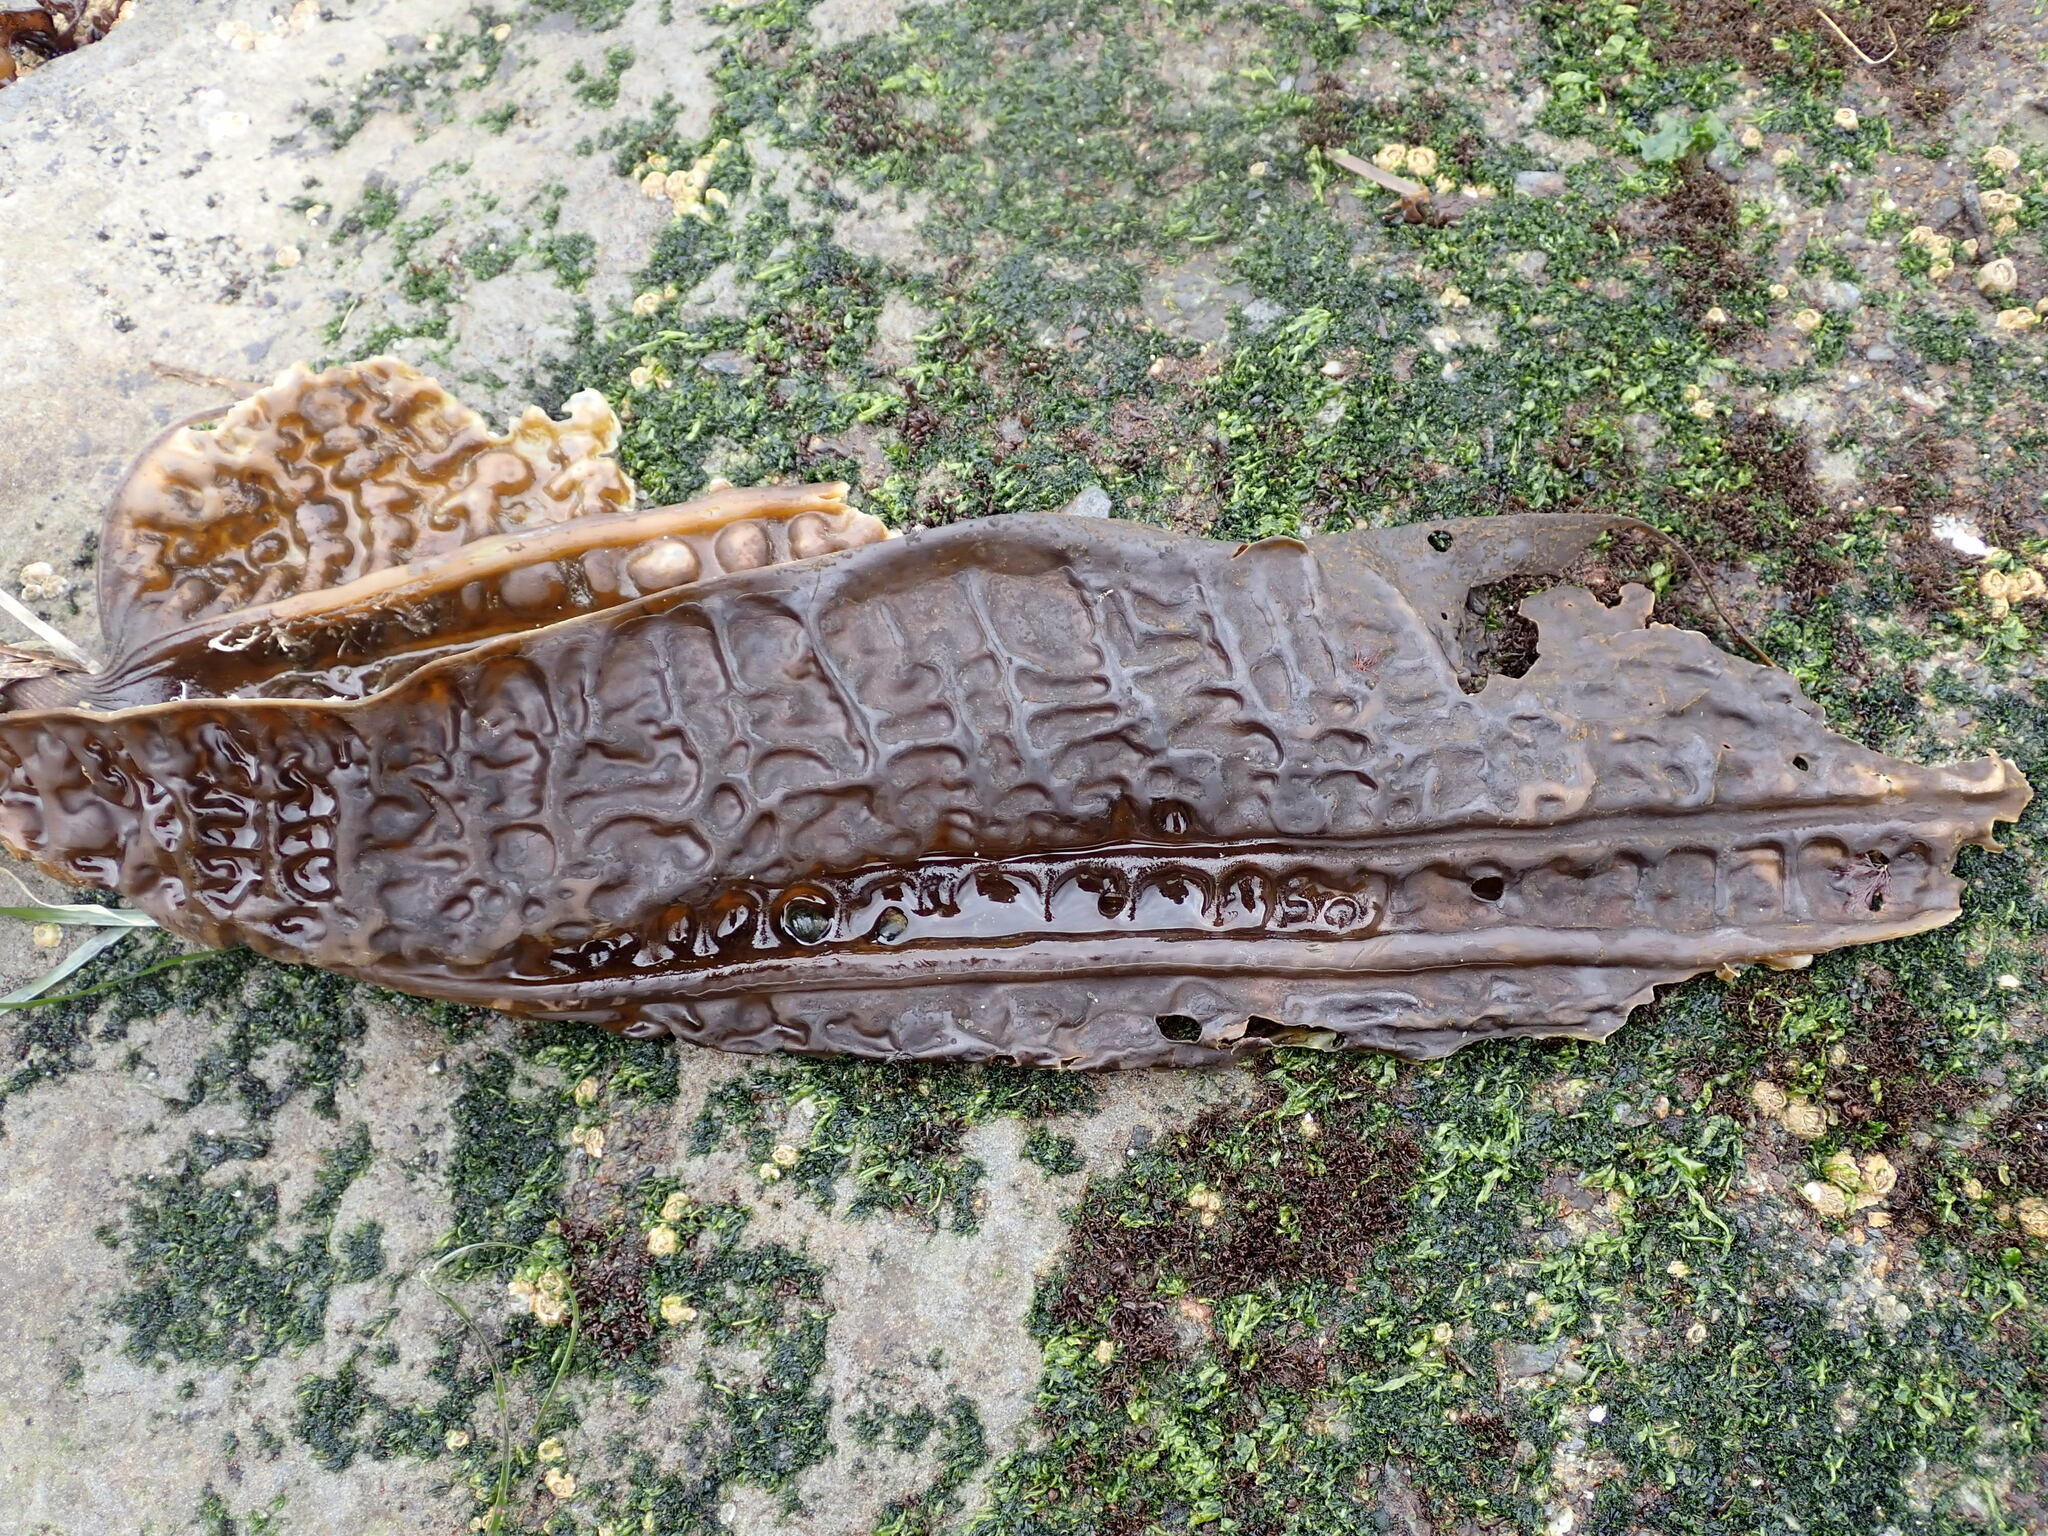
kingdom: Chromista
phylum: Ochrophyta
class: Phaeophyceae
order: Laminariales
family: Costariaceae
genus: Costaria
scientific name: Costaria costata
